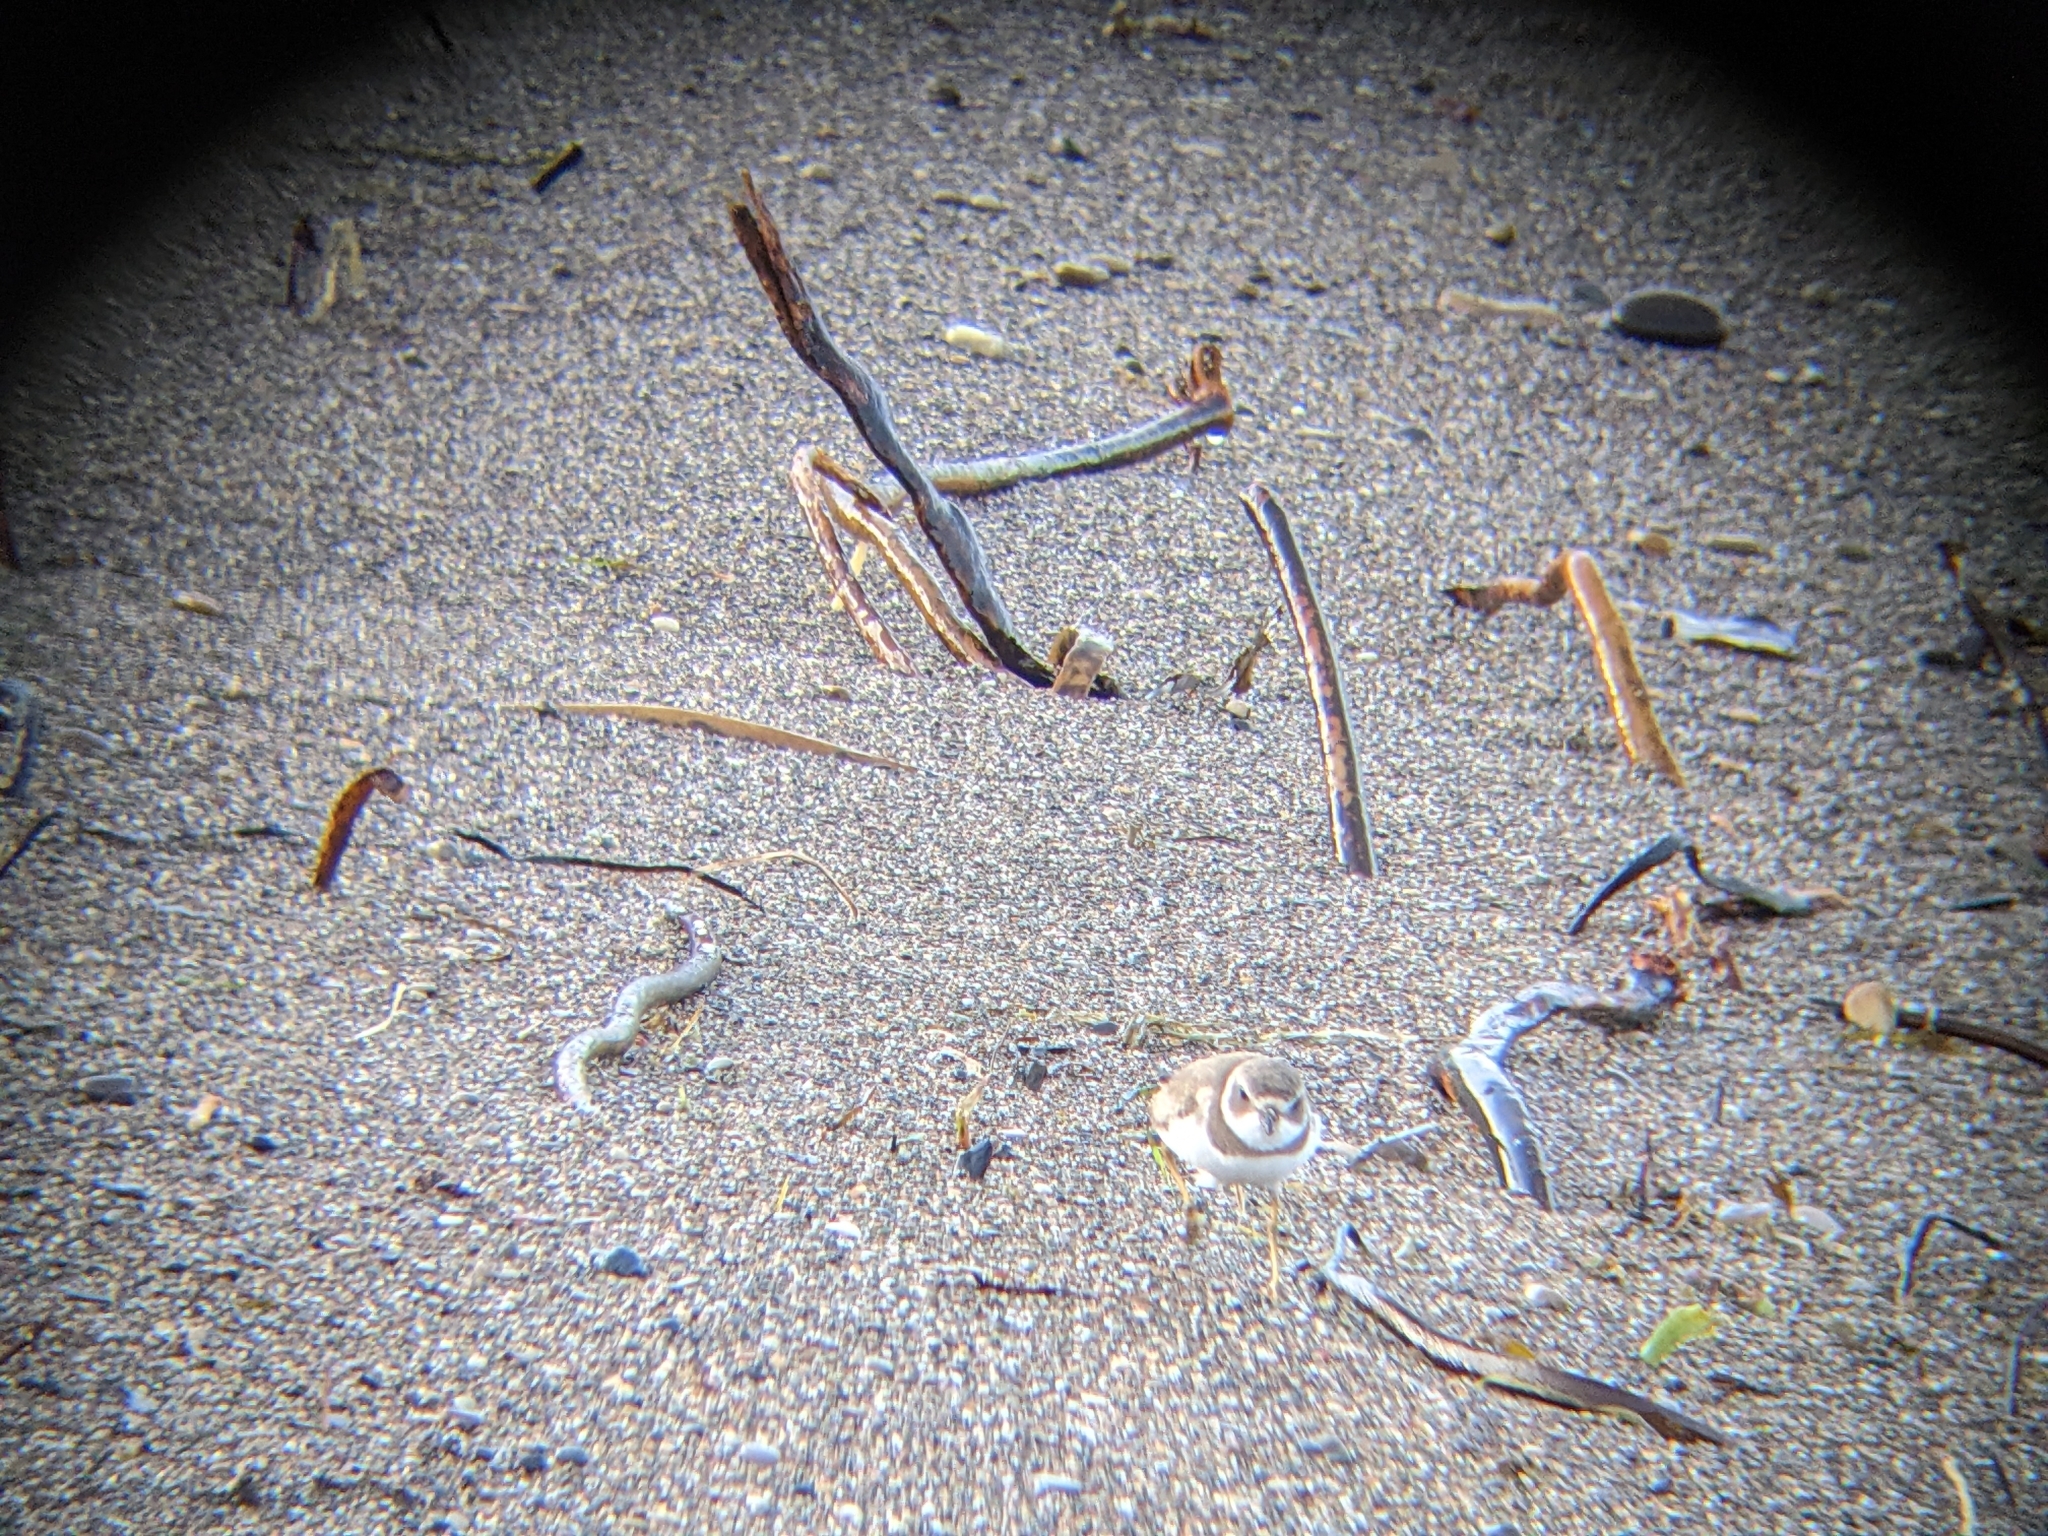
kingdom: Animalia
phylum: Chordata
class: Aves
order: Charadriiformes
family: Charadriidae
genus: Charadrius
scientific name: Charadrius semipalmatus
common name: Semipalmated plover
